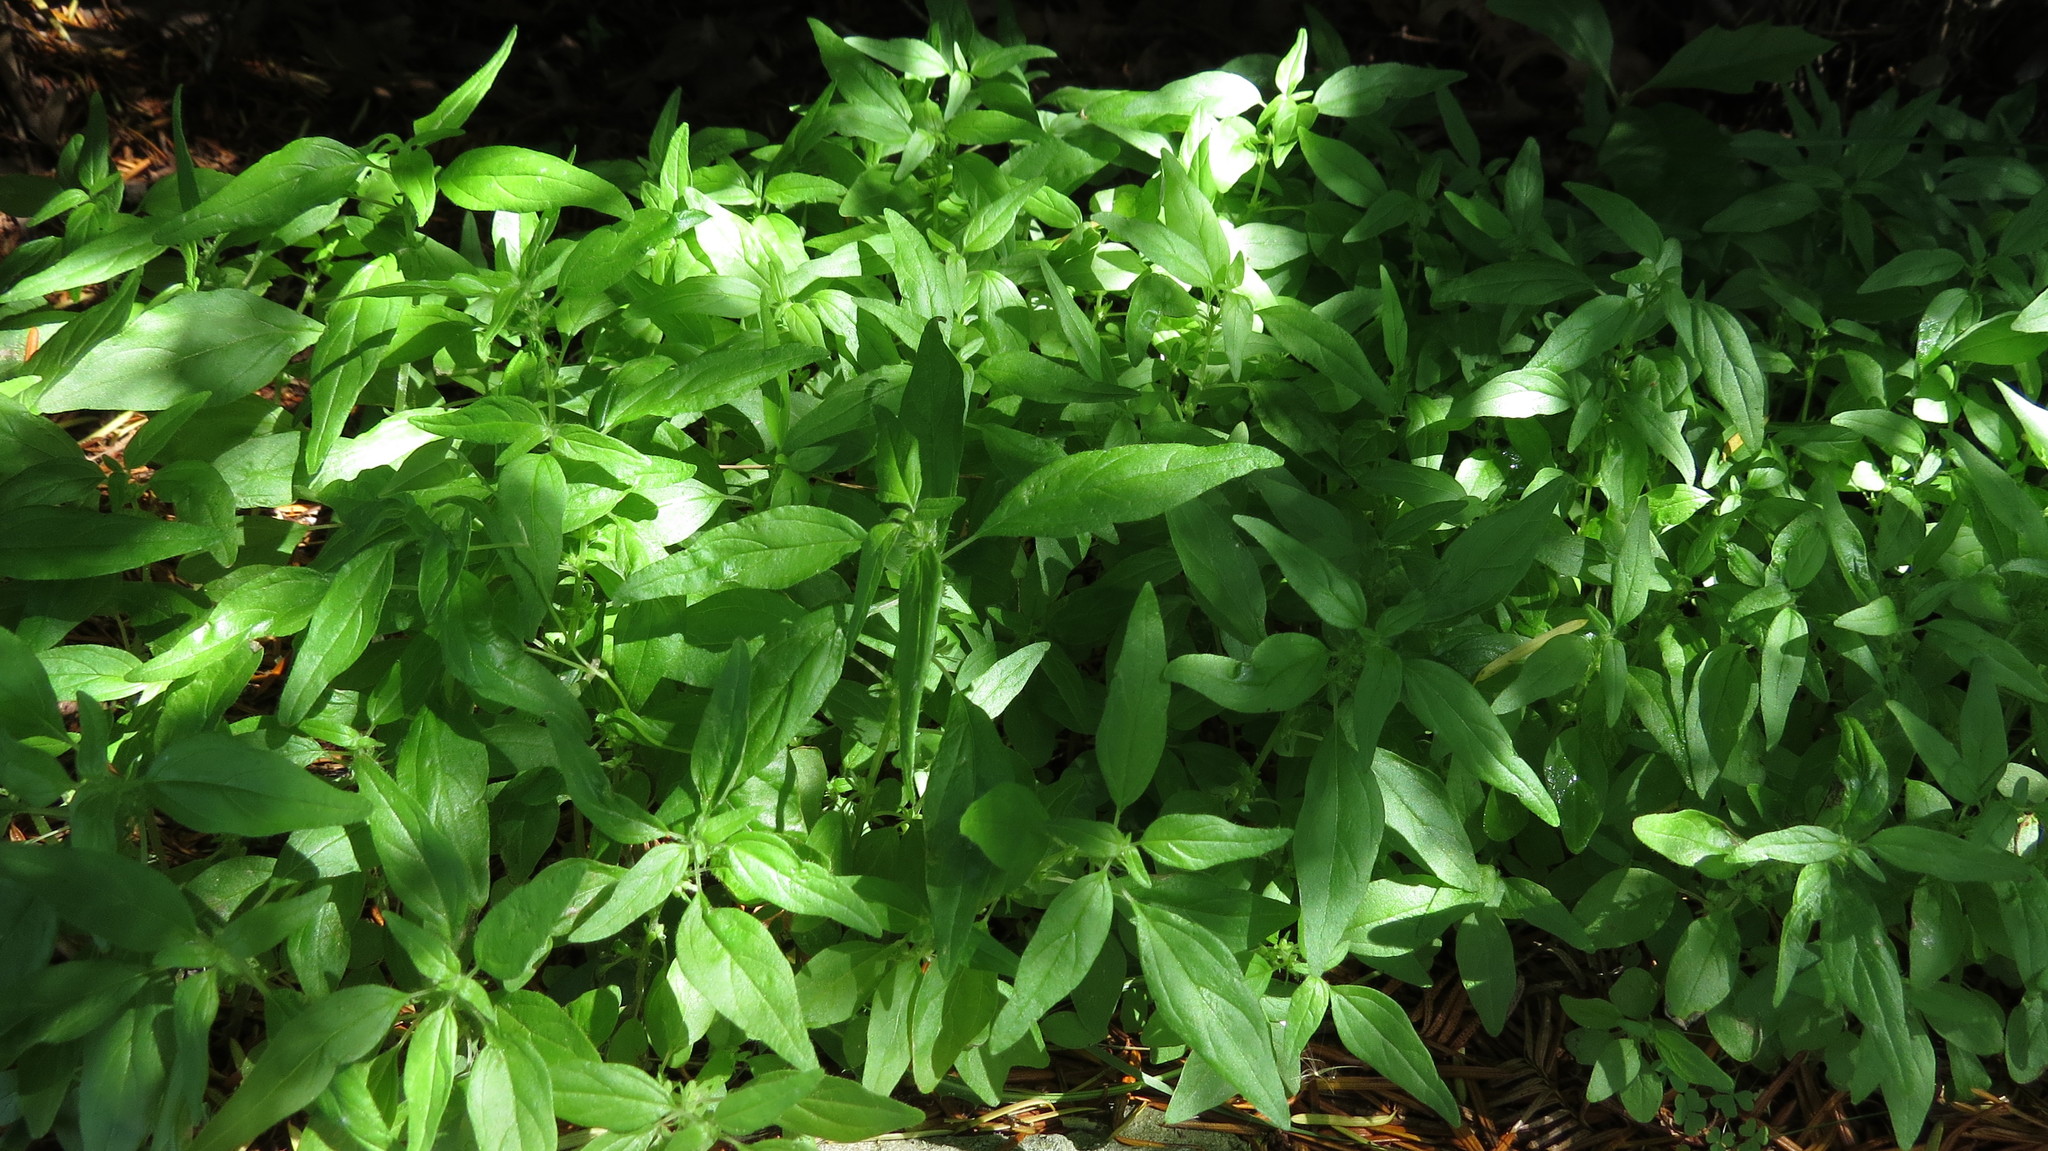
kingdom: Plantae
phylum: Tracheophyta
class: Magnoliopsida
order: Rosales
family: Urticaceae
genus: Parietaria
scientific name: Parietaria pensylvanica
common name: Pennsylvania pellitory
